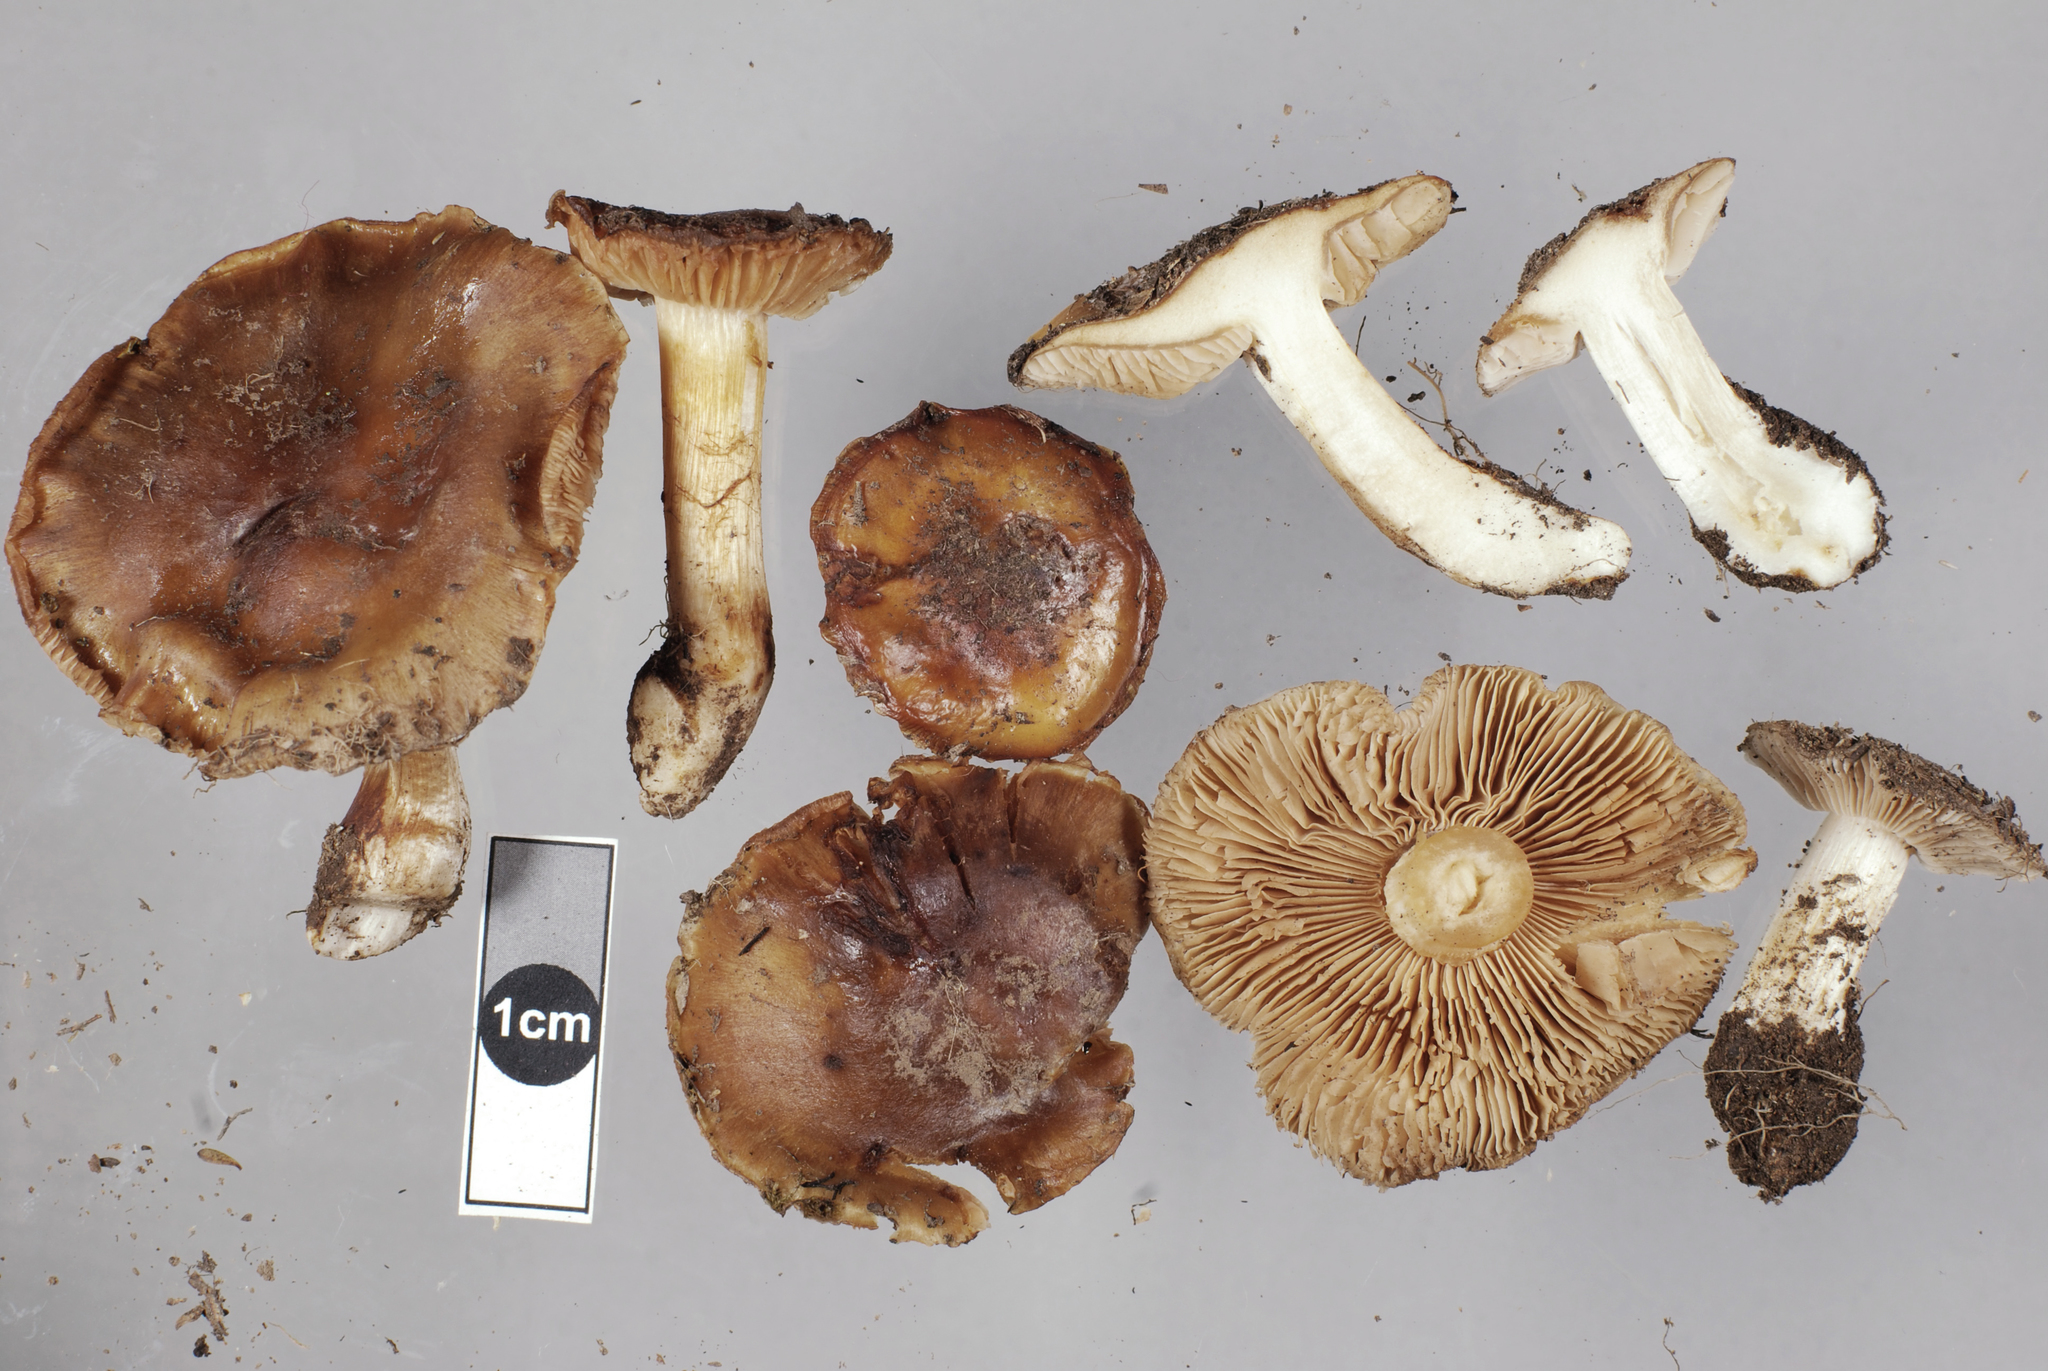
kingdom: Fungi
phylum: Basidiomycota
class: Agaricomycetes
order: Agaricales
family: Cortinariaceae
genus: Thaxterogaster
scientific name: Thaxterogaster dulcamarus
